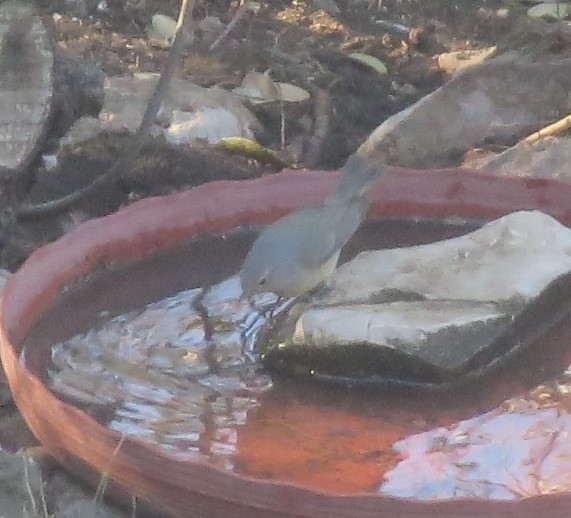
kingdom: Animalia
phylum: Chordata
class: Aves
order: Passeriformes
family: Parulidae
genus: Leiothlypis
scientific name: Leiothlypis celata
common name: Orange-crowned warbler
